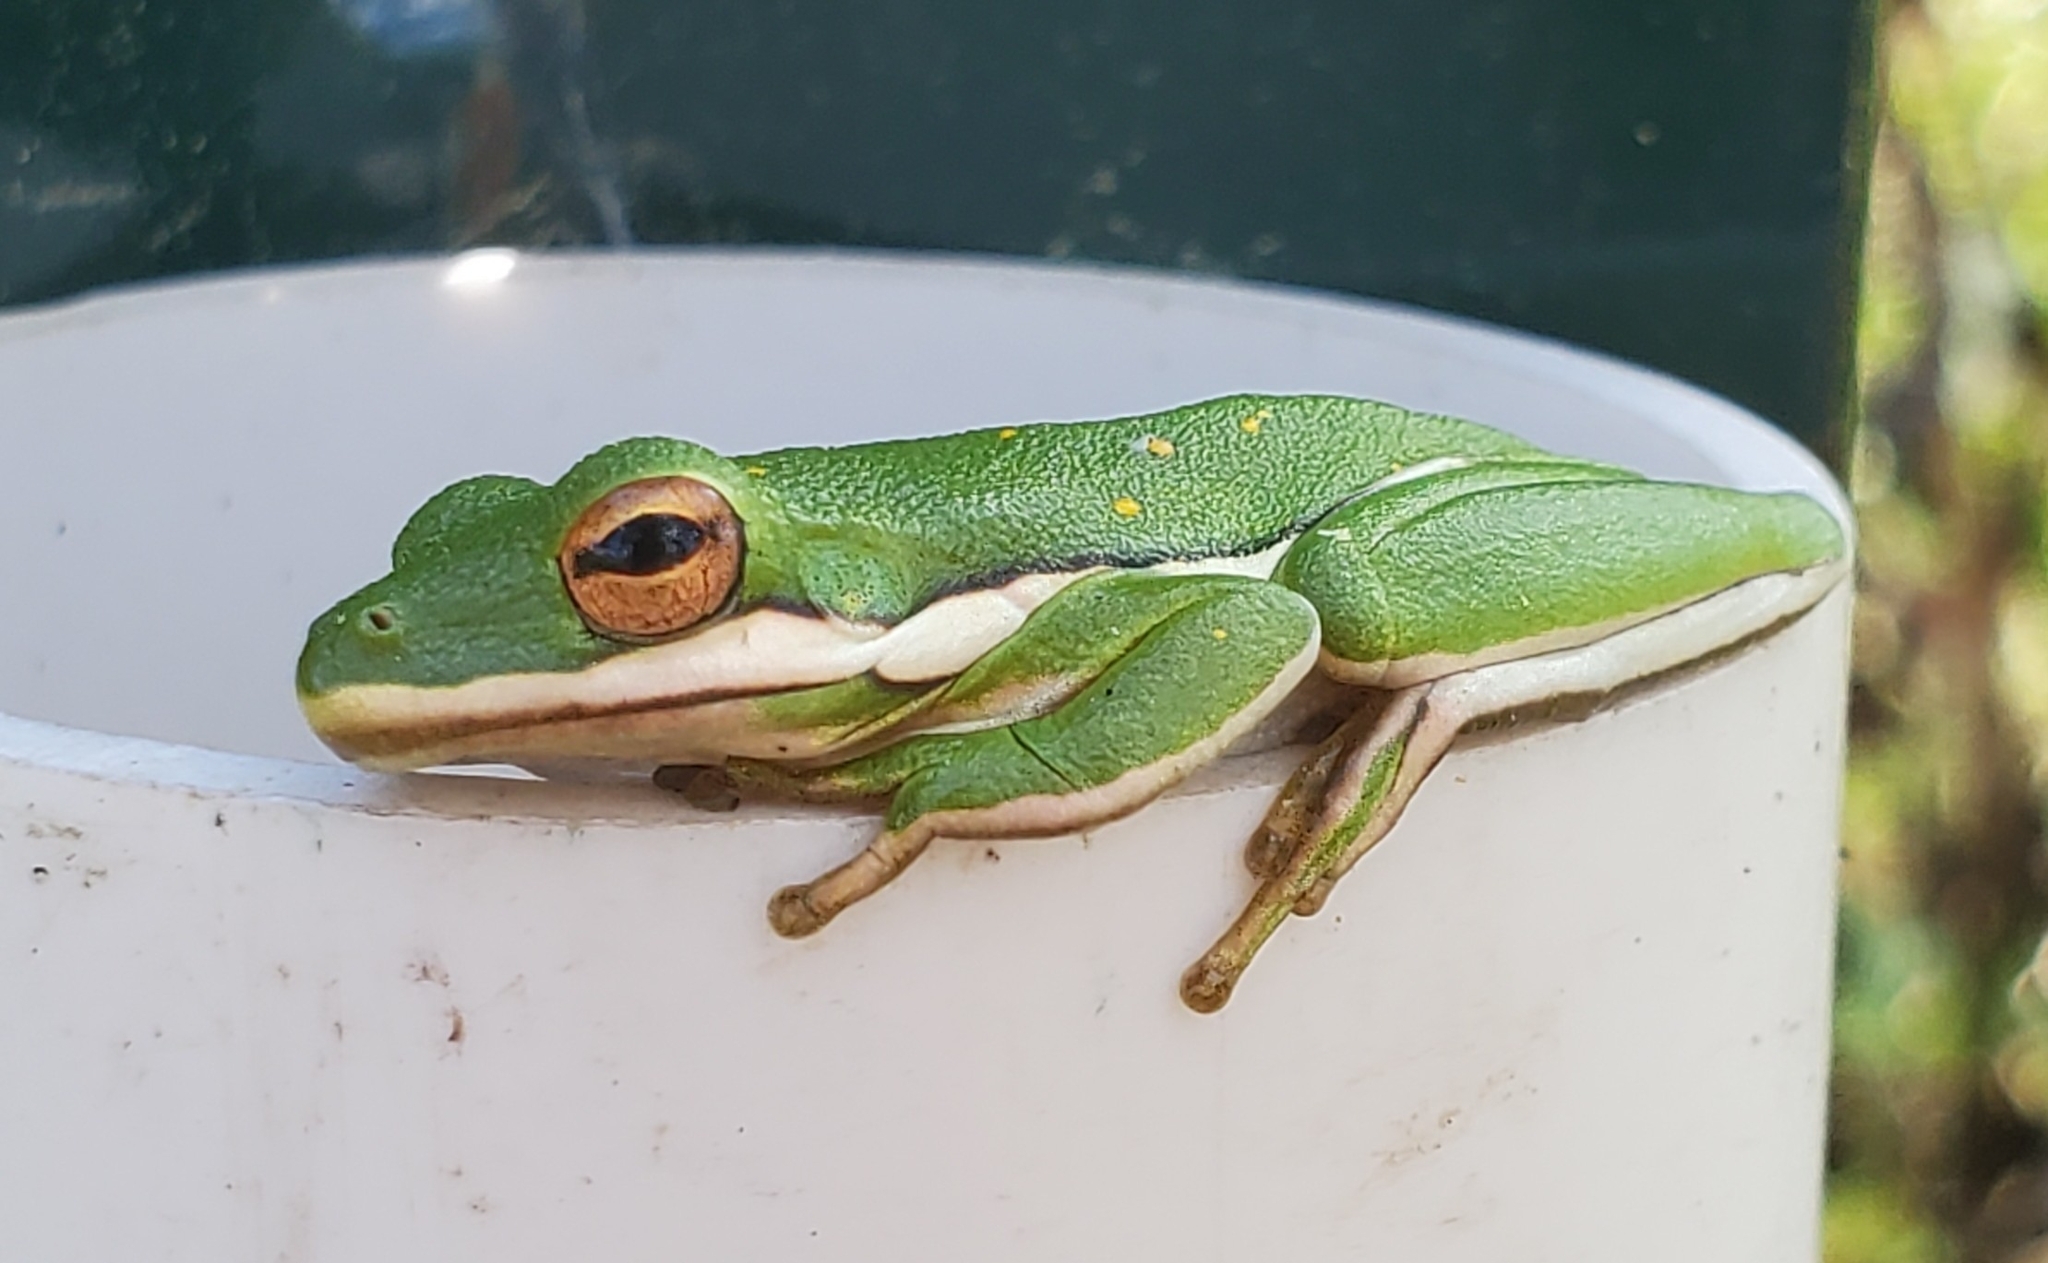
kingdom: Animalia
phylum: Chordata
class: Amphibia
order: Anura
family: Hylidae
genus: Dryophytes
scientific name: Dryophytes cinereus
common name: Green treefrog
